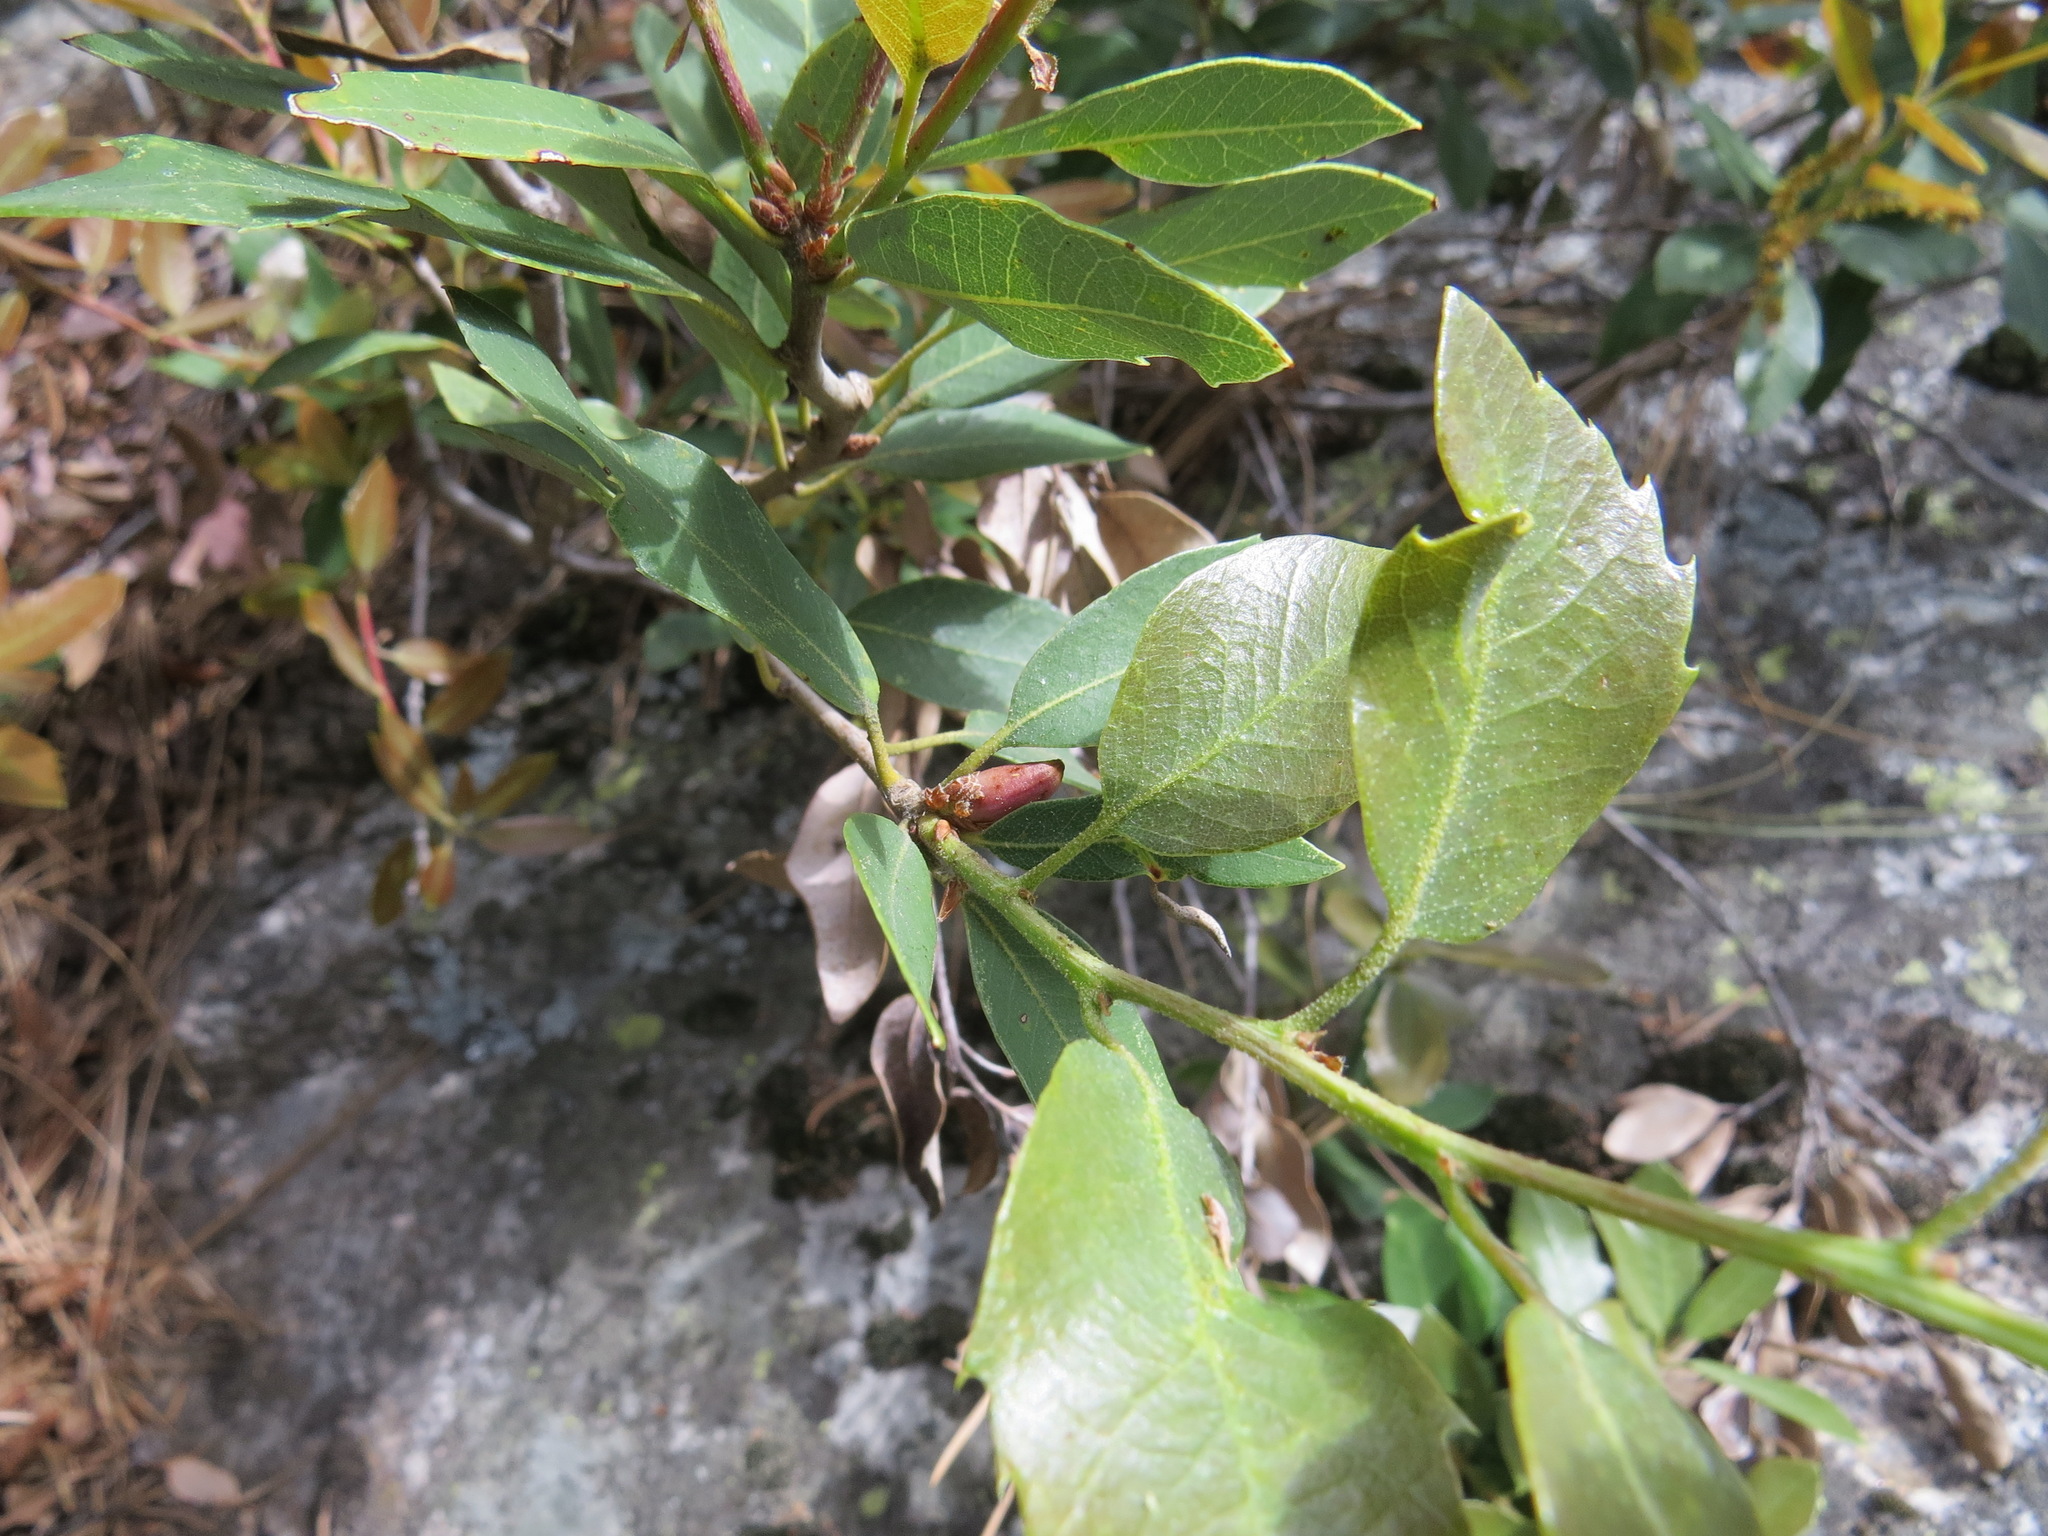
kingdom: Animalia
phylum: Arthropoda
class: Insecta
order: Hymenoptera
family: Cynipidae
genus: Andricus
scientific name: Andricus
